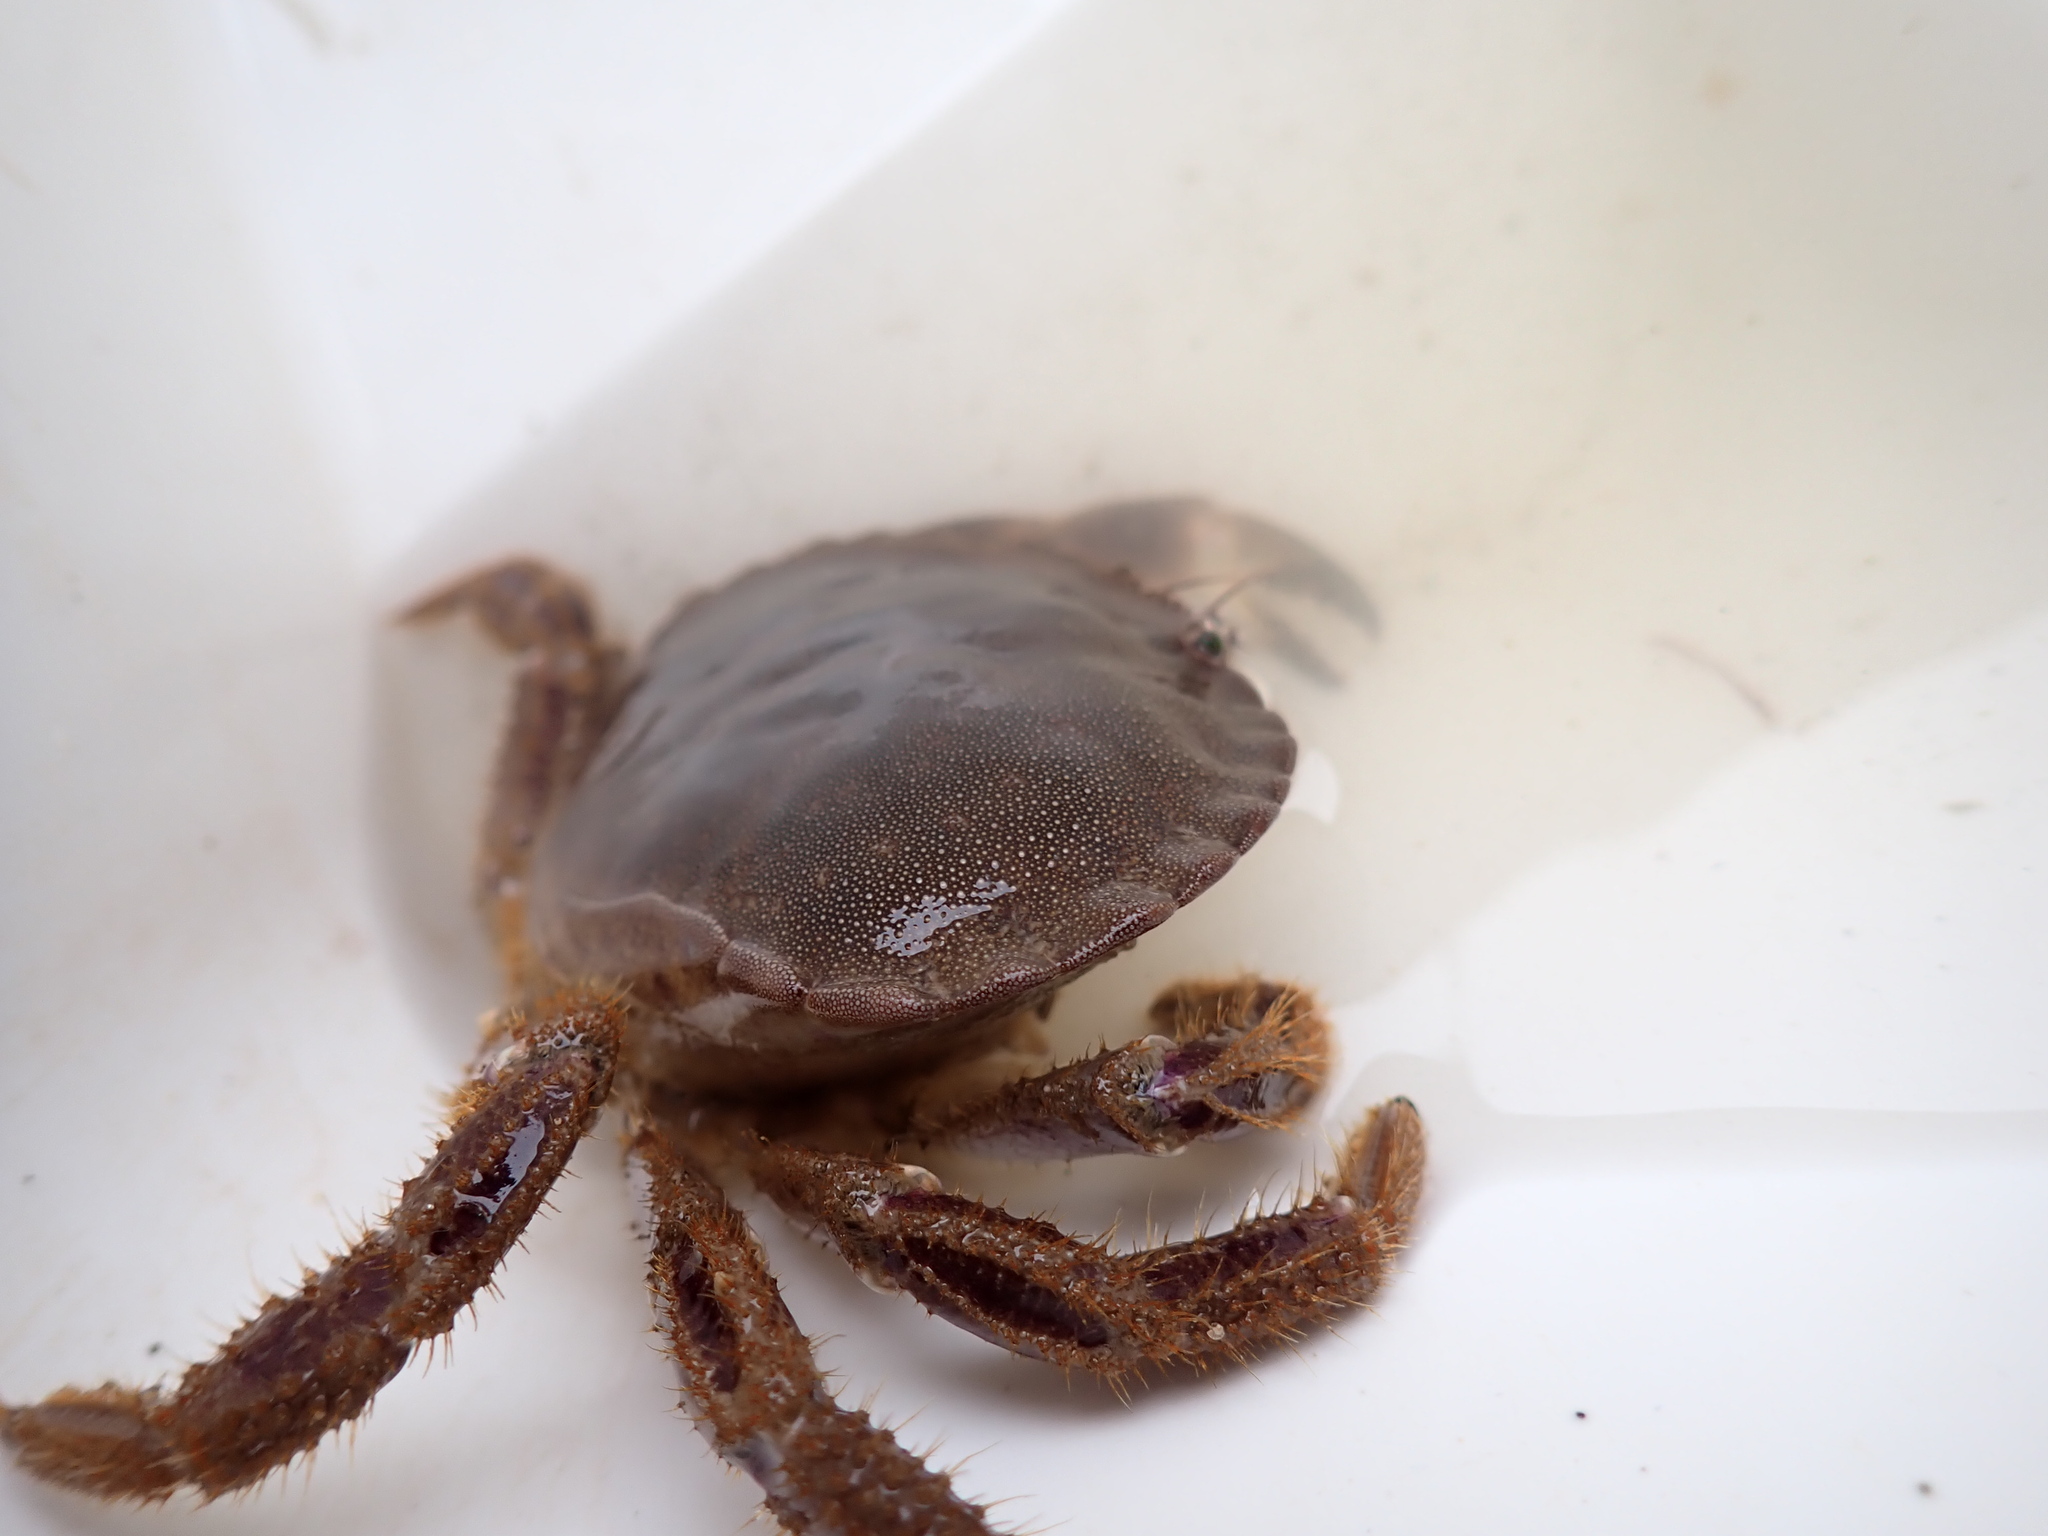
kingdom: Animalia
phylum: Arthropoda
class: Malacostraca
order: Decapoda
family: Cancridae
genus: Cancer
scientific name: Cancer pagurus
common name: Edible crab
